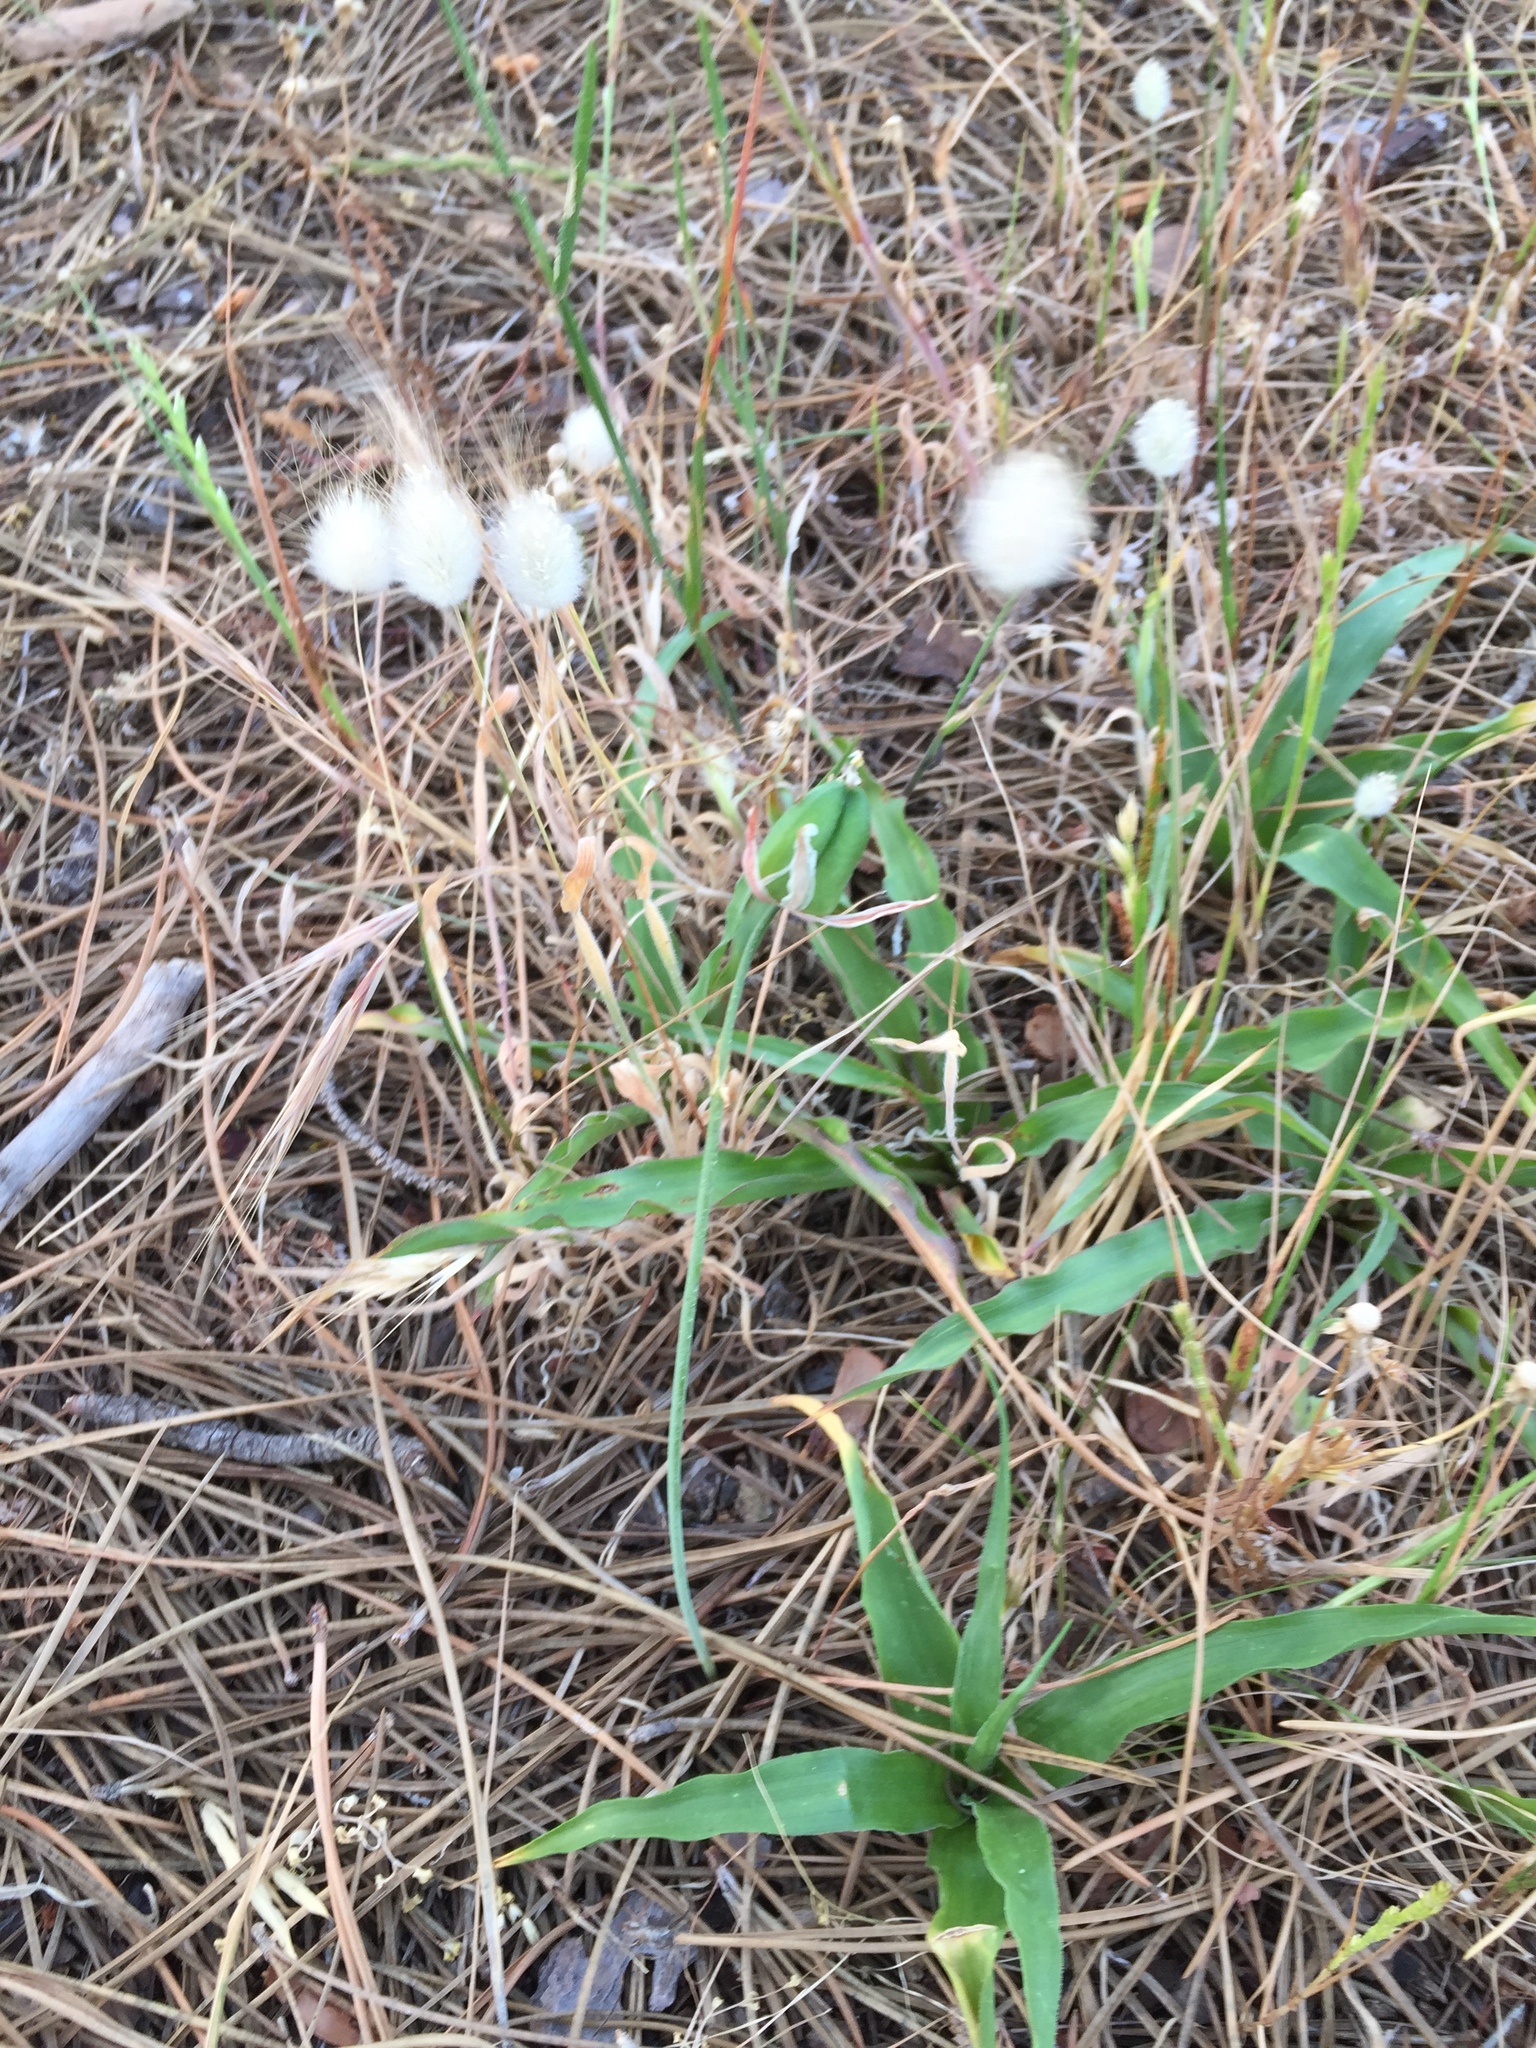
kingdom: Plantae
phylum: Tracheophyta
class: Liliopsida
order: Asparagales
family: Asparagaceae
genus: Albuca
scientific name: Albuca cooperi
